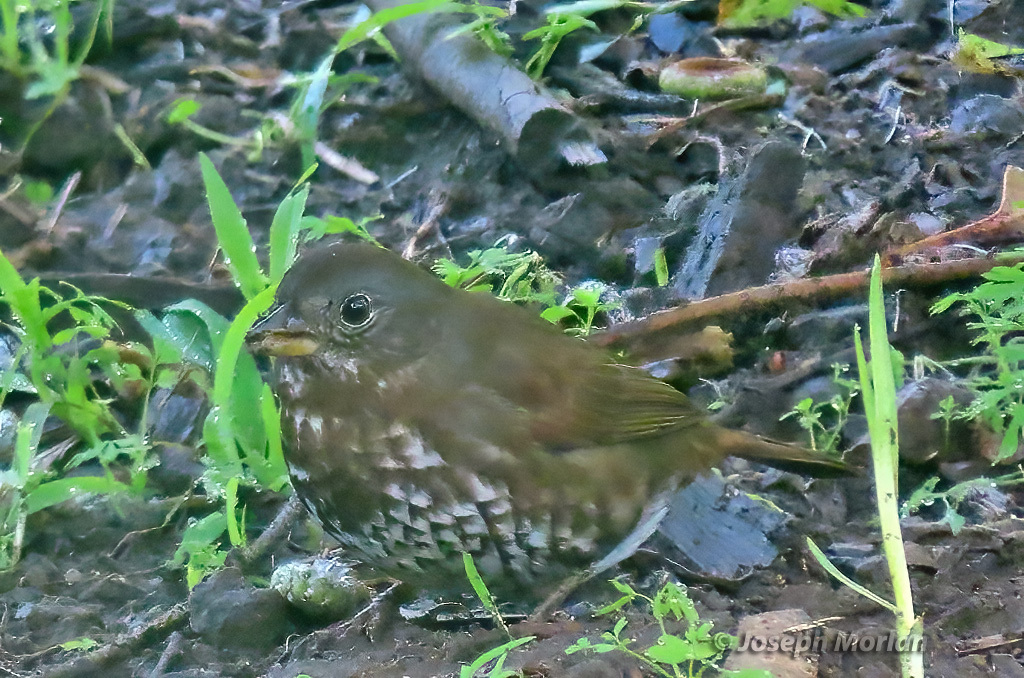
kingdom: Animalia
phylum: Chordata
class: Aves
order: Passeriformes
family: Passerellidae
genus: Passerella
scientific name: Passerella iliaca
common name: Fox sparrow
